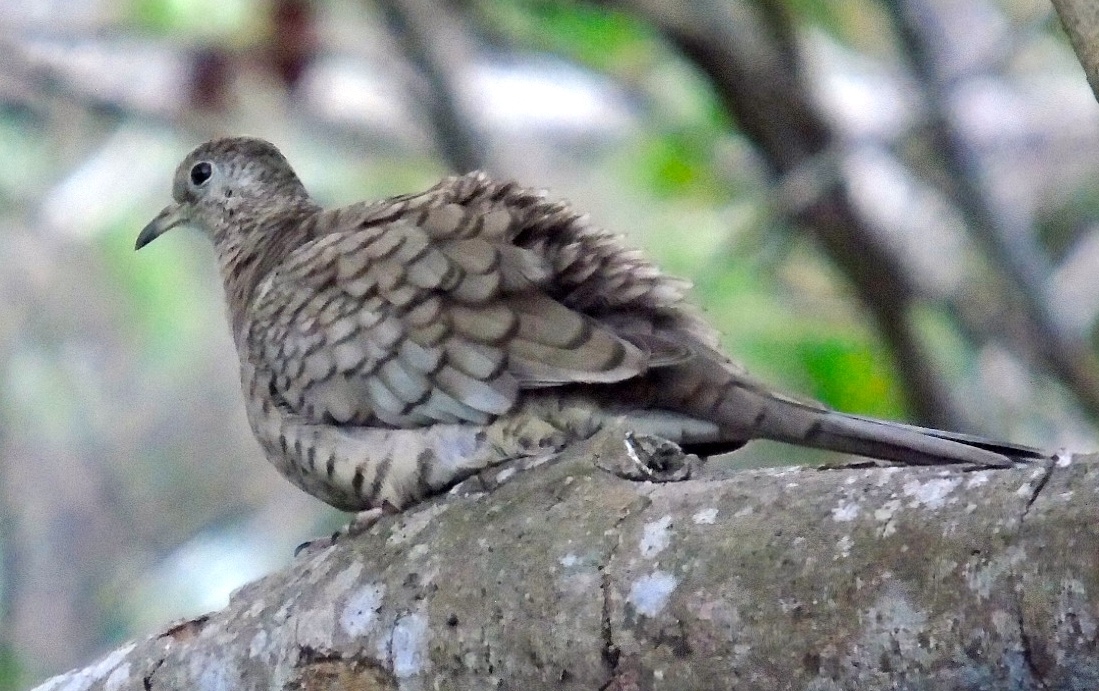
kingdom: Animalia
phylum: Chordata
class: Aves
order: Columbiformes
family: Columbidae
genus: Columbina
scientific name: Columbina inca
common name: Inca dove
